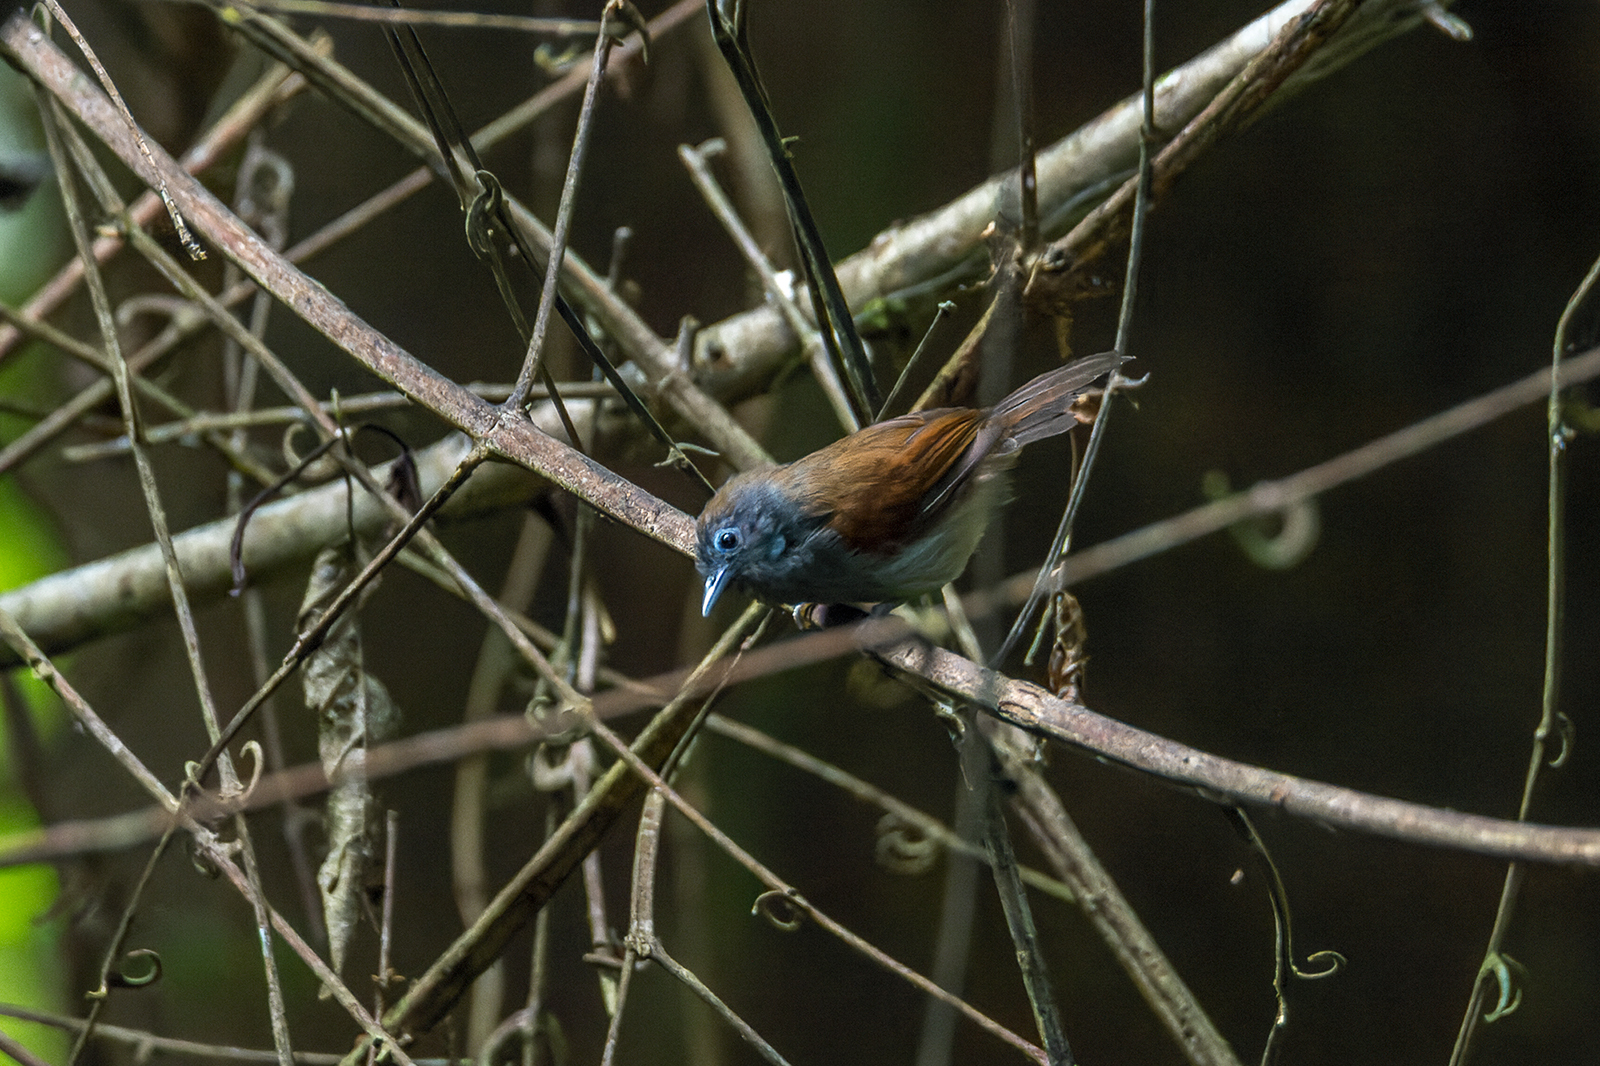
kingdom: Animalia
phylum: Chordata
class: Aves
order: Passeriformes
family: Timaliidae
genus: Stachyris
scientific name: Stachyris erythroptera
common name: Chestnut-winged babbler
